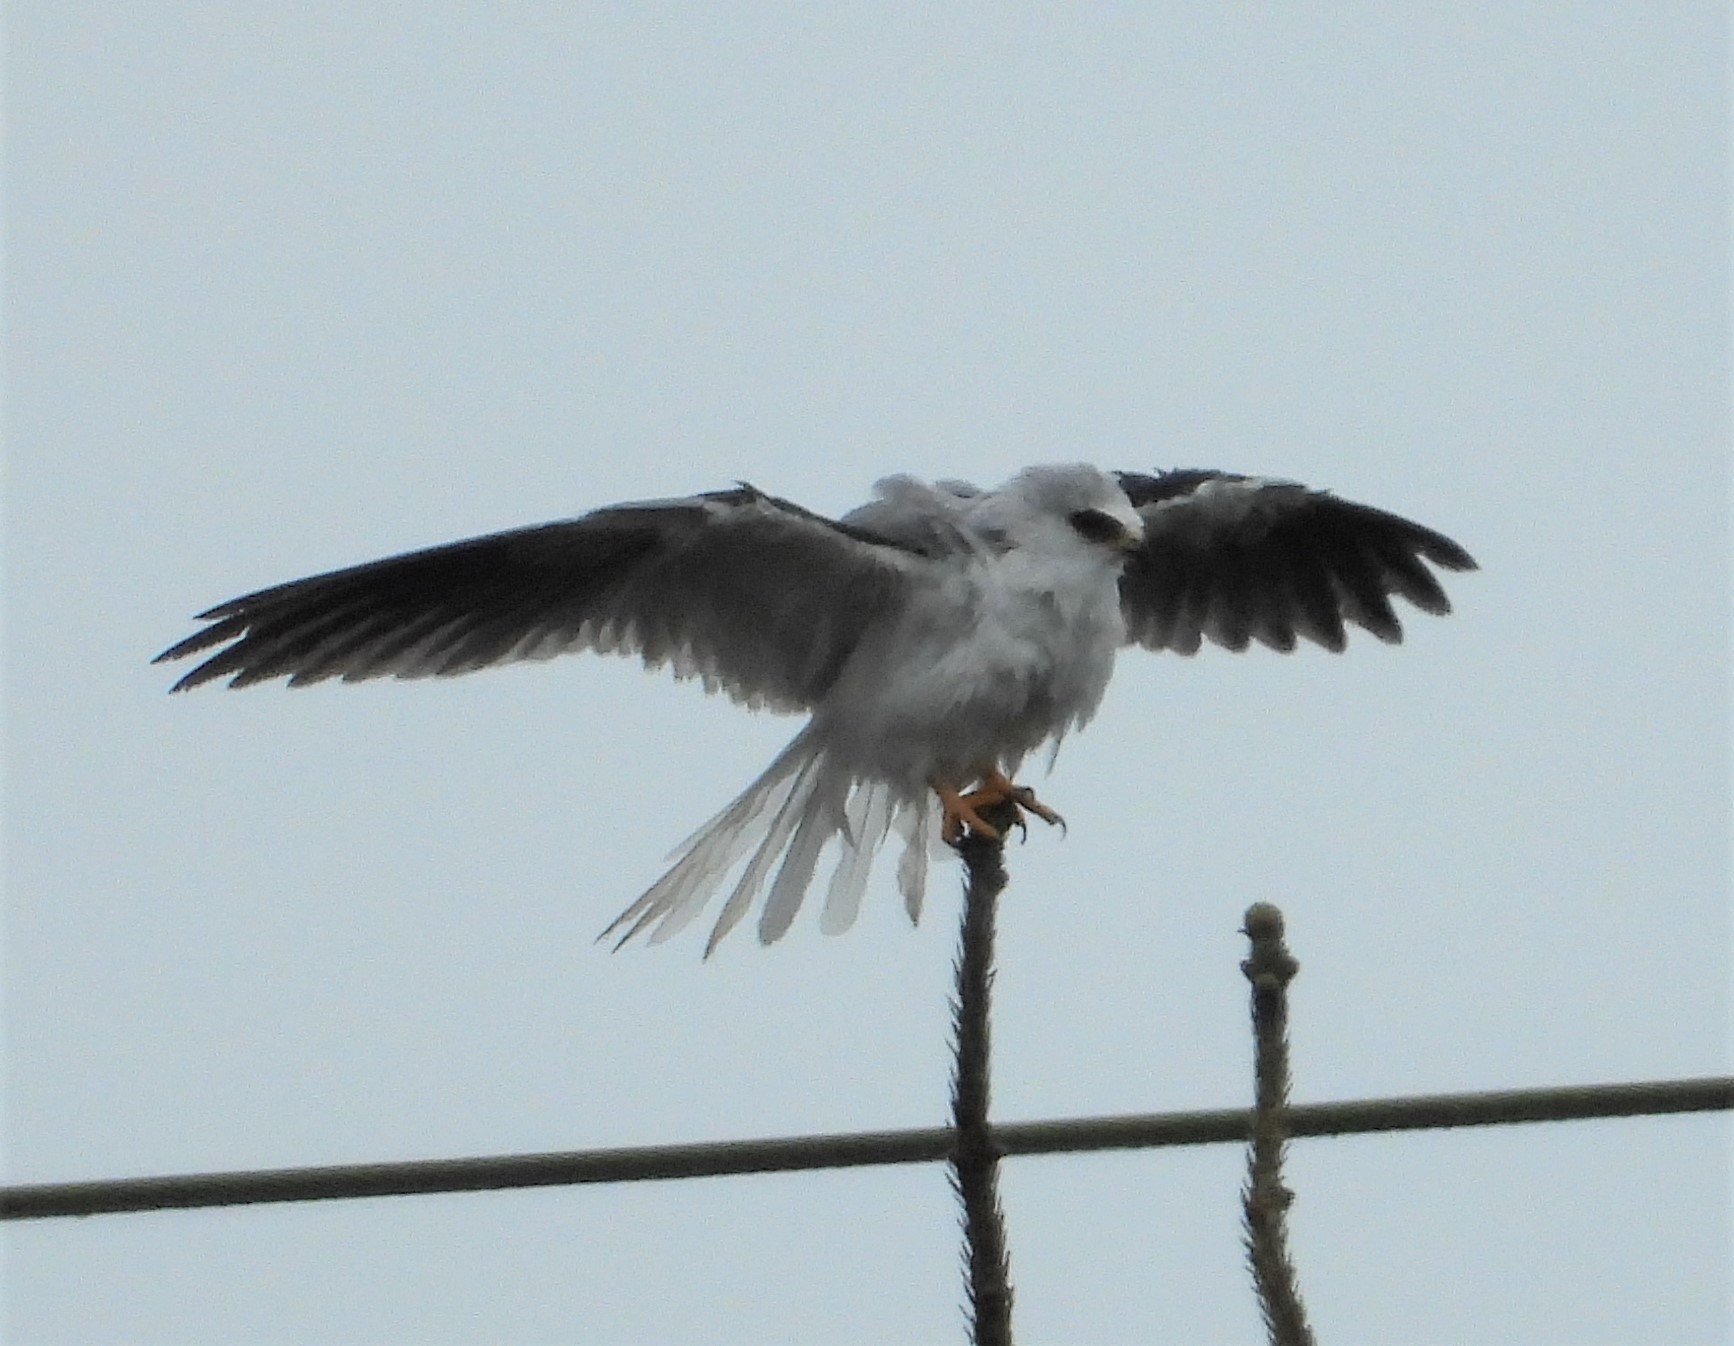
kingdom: Animalia
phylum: Chordata
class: Aves
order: Accipitriformes
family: Accipitridae
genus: Elanus
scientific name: Elanus leucurus
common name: White-tailed kite
